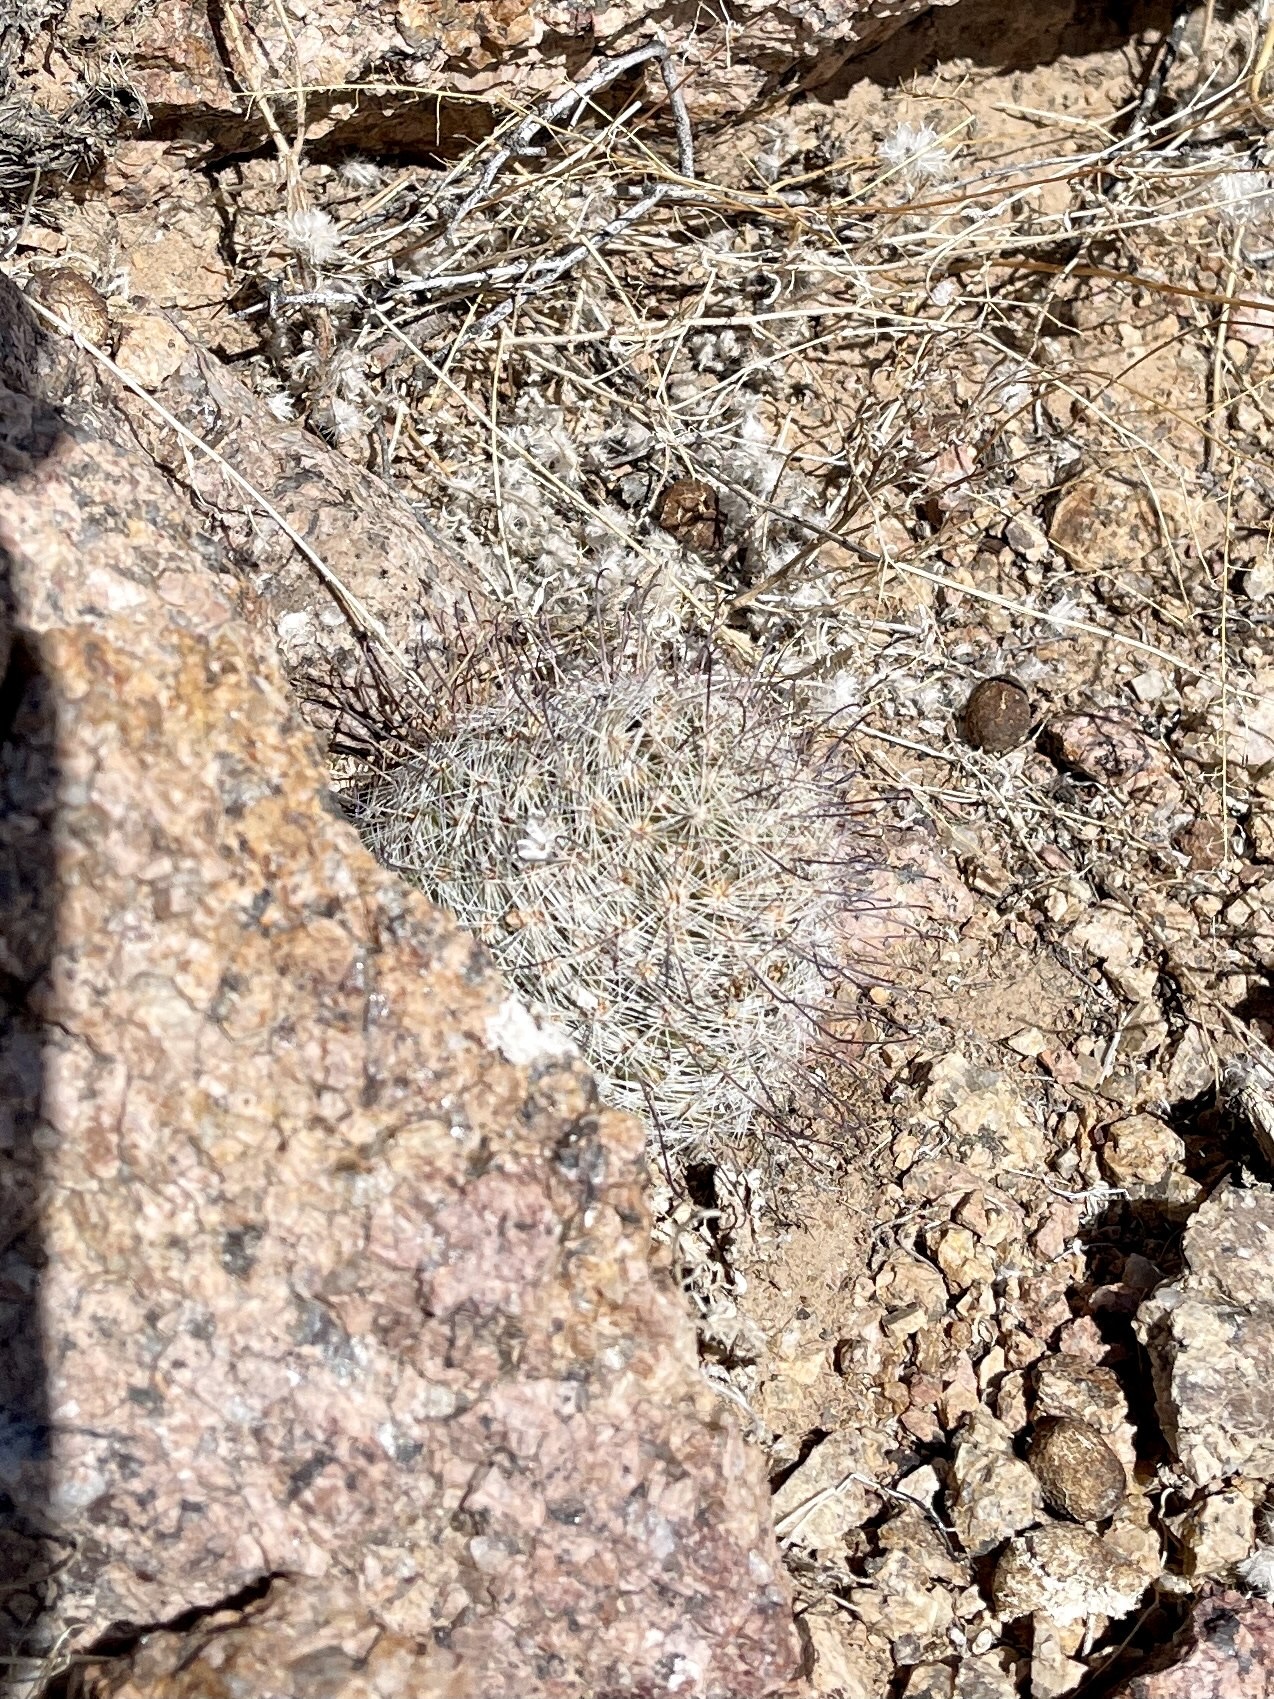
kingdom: Plantae
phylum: Tracheophyta
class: Magnoliopsida
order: Caryophyllales
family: Cactaceae
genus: Cochemiea
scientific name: Cochemiea grahamii
